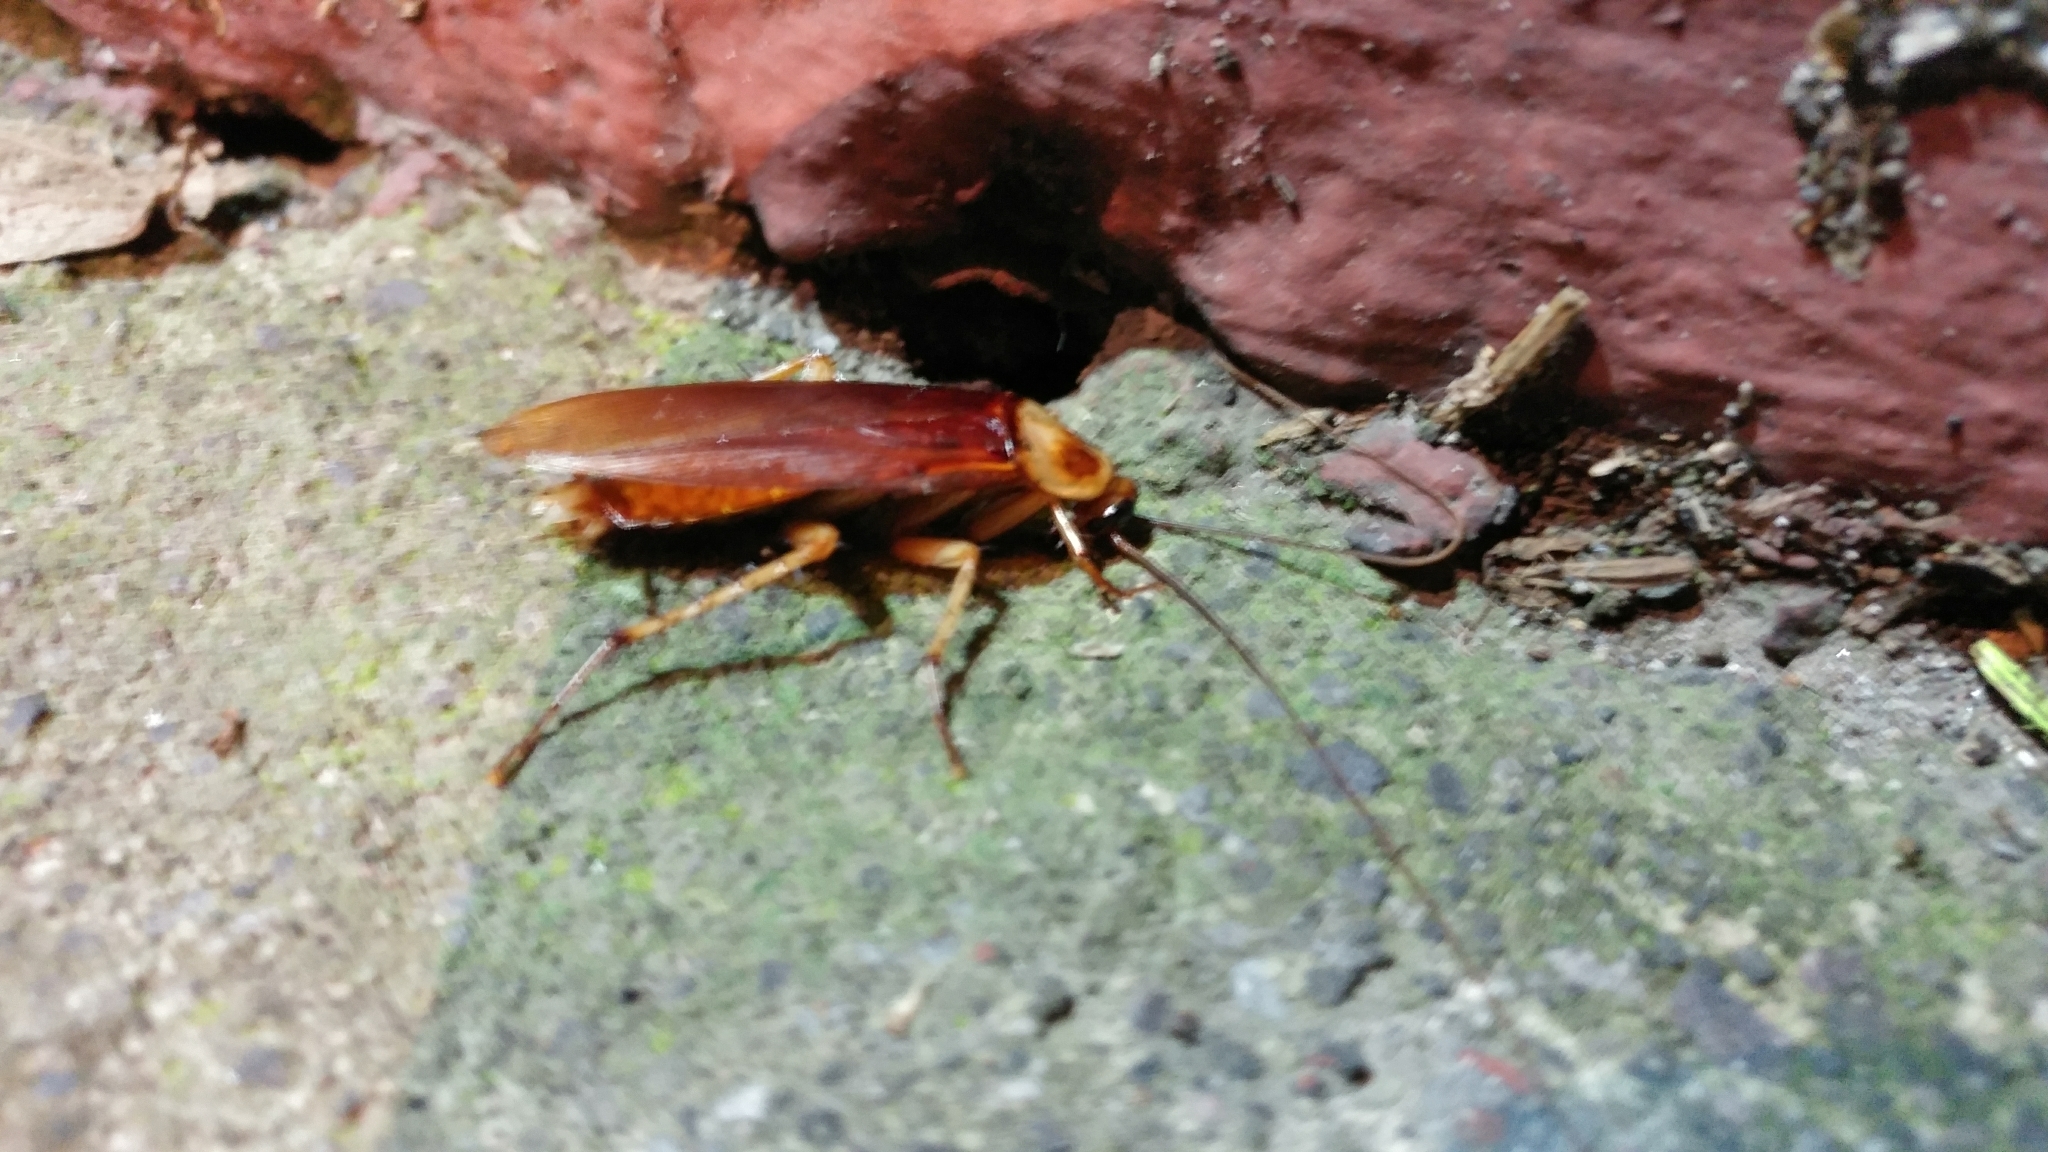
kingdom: Animalia
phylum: Arthropoda
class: Insecta
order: Blattodea
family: Blattidae
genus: Periplaneta
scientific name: Periplaneta americana
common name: American cockroach
